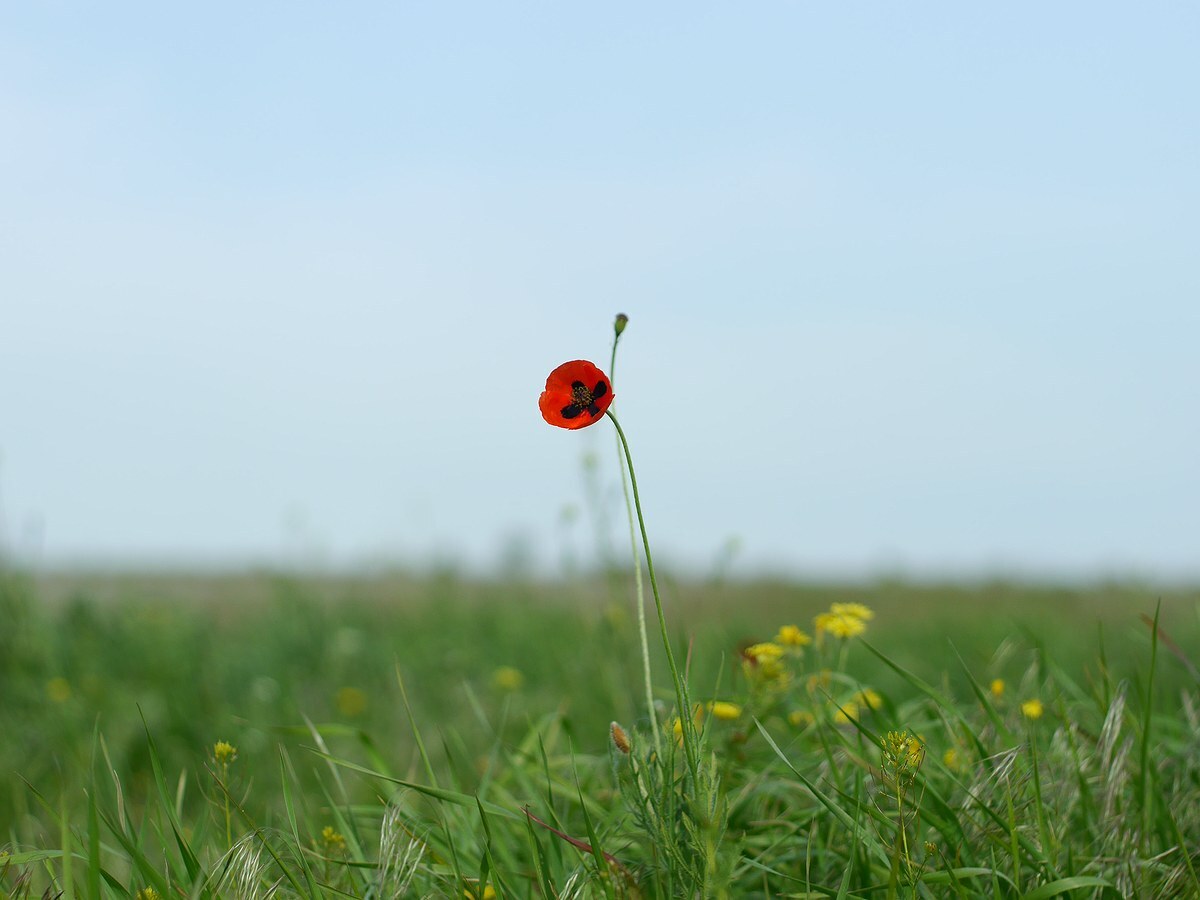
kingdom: Plantae
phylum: Tracheophyta
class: Magnoliopsida
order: Ranunculales
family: Papaveraceae
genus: Papaver
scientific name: Papaver dubium
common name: Long-headed poppy
